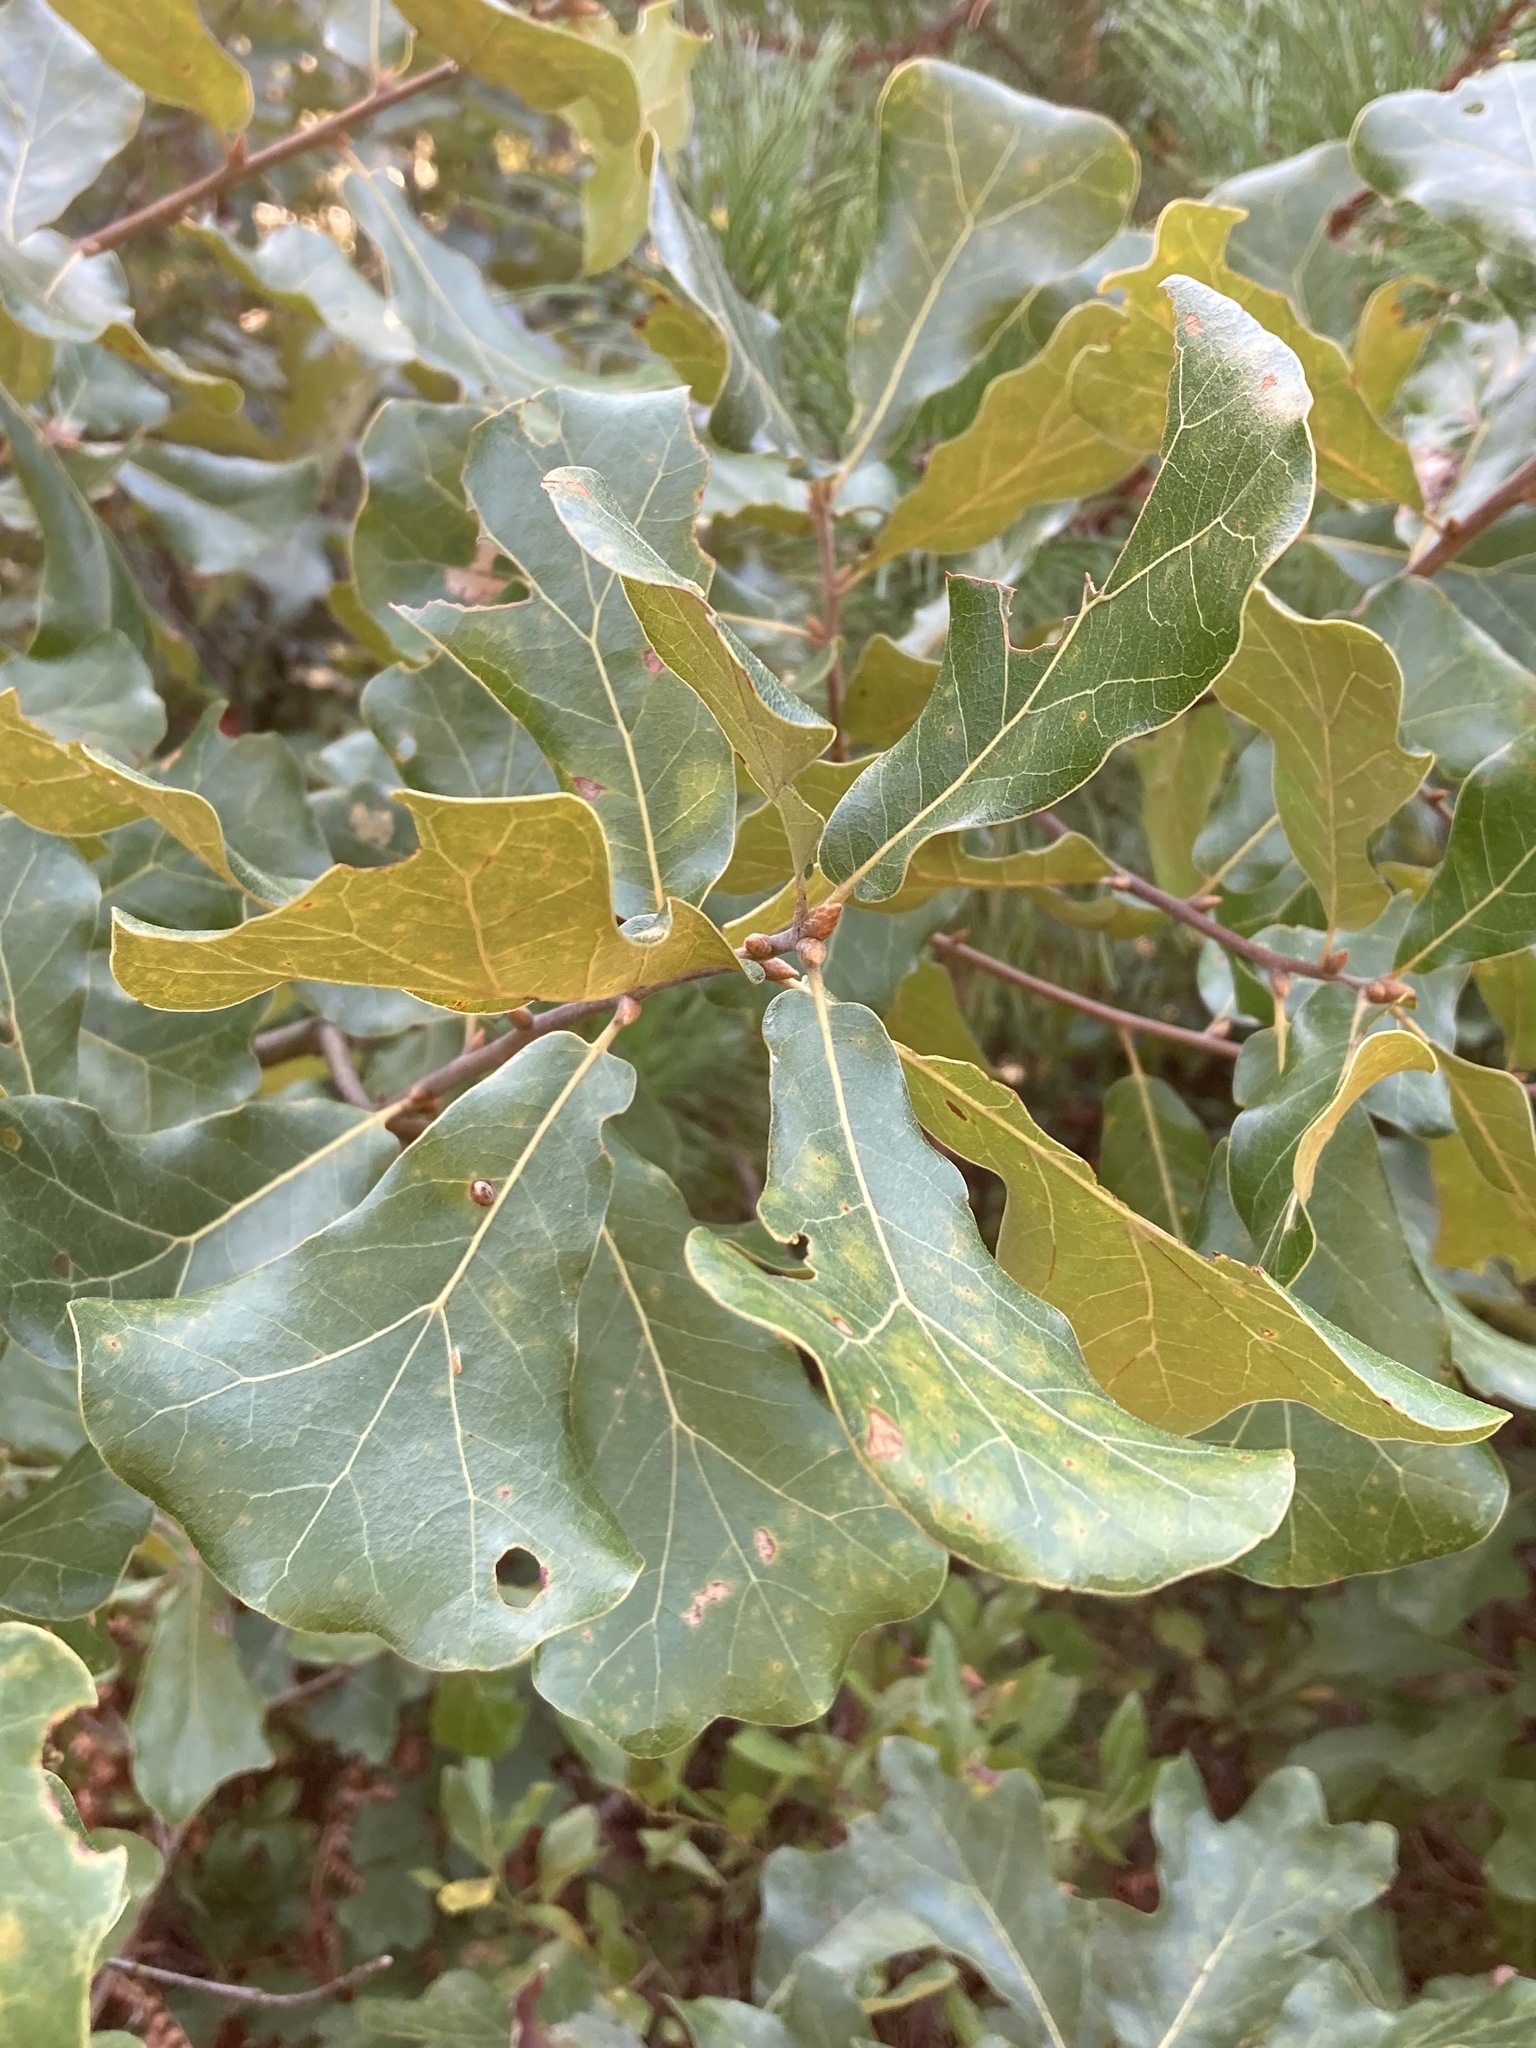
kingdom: Plantae
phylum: Tracheophyta
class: Magnoliopsida
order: Fagales
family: Fagaceae
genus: Quercus
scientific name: Quercus marilandica
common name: Blackjack oak
